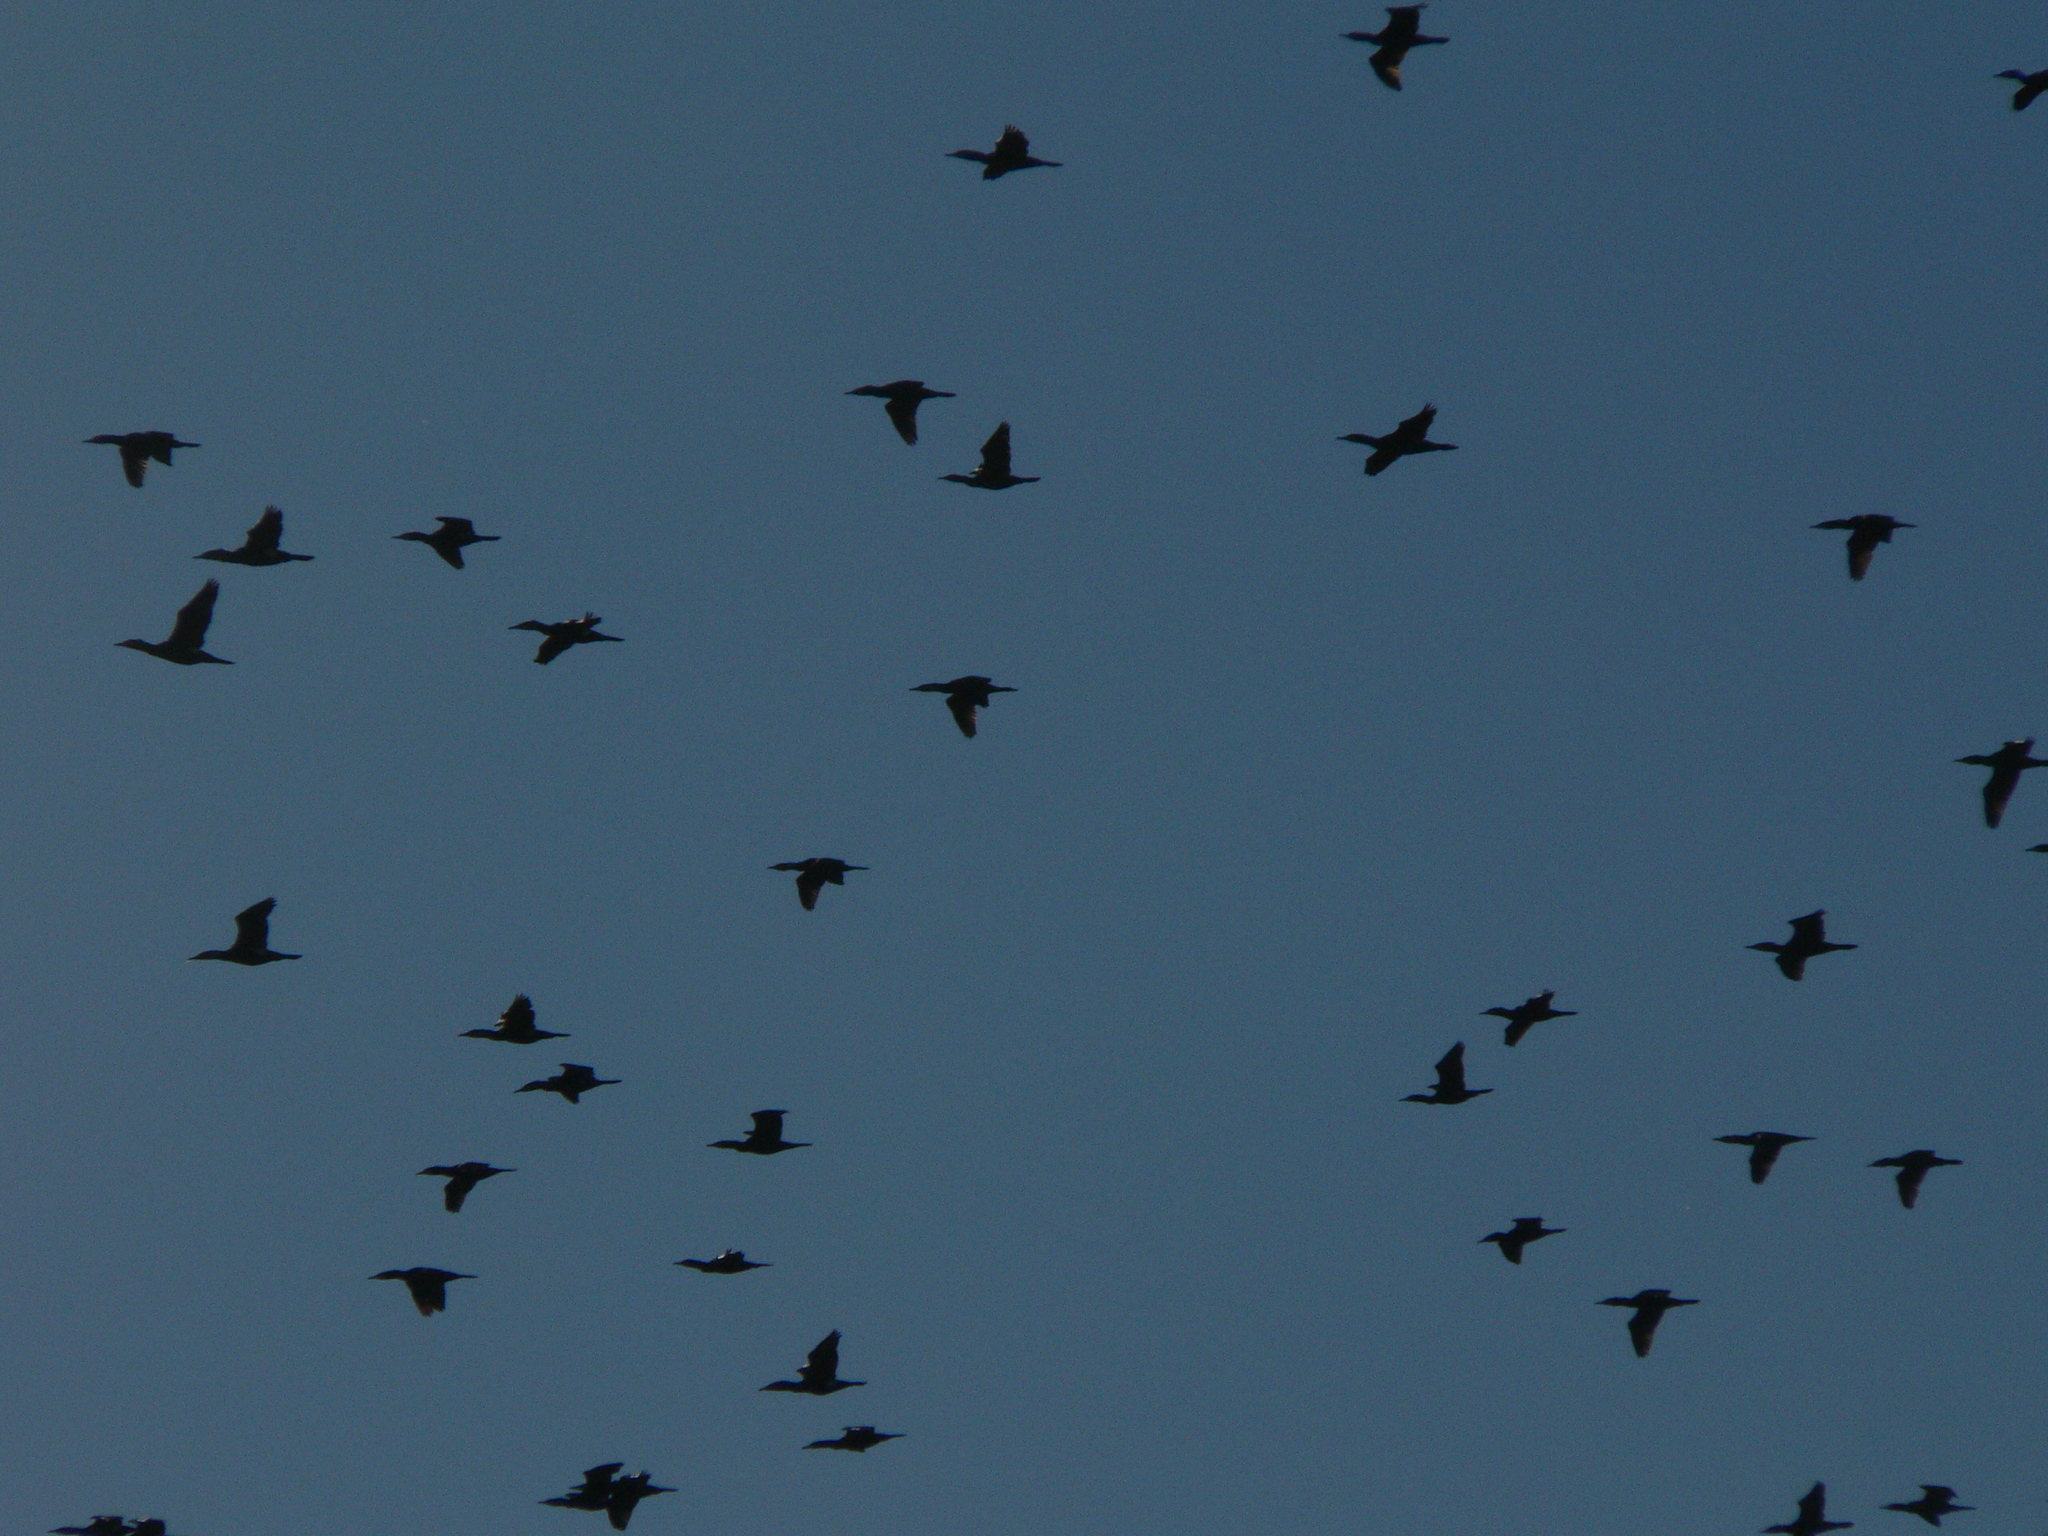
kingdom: Animalia
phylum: Chordata
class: Aves
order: Suliformes
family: Phalacrocoracidae
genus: Phalacrocorax
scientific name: Phalacrocorax carbo
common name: Great cormorant
